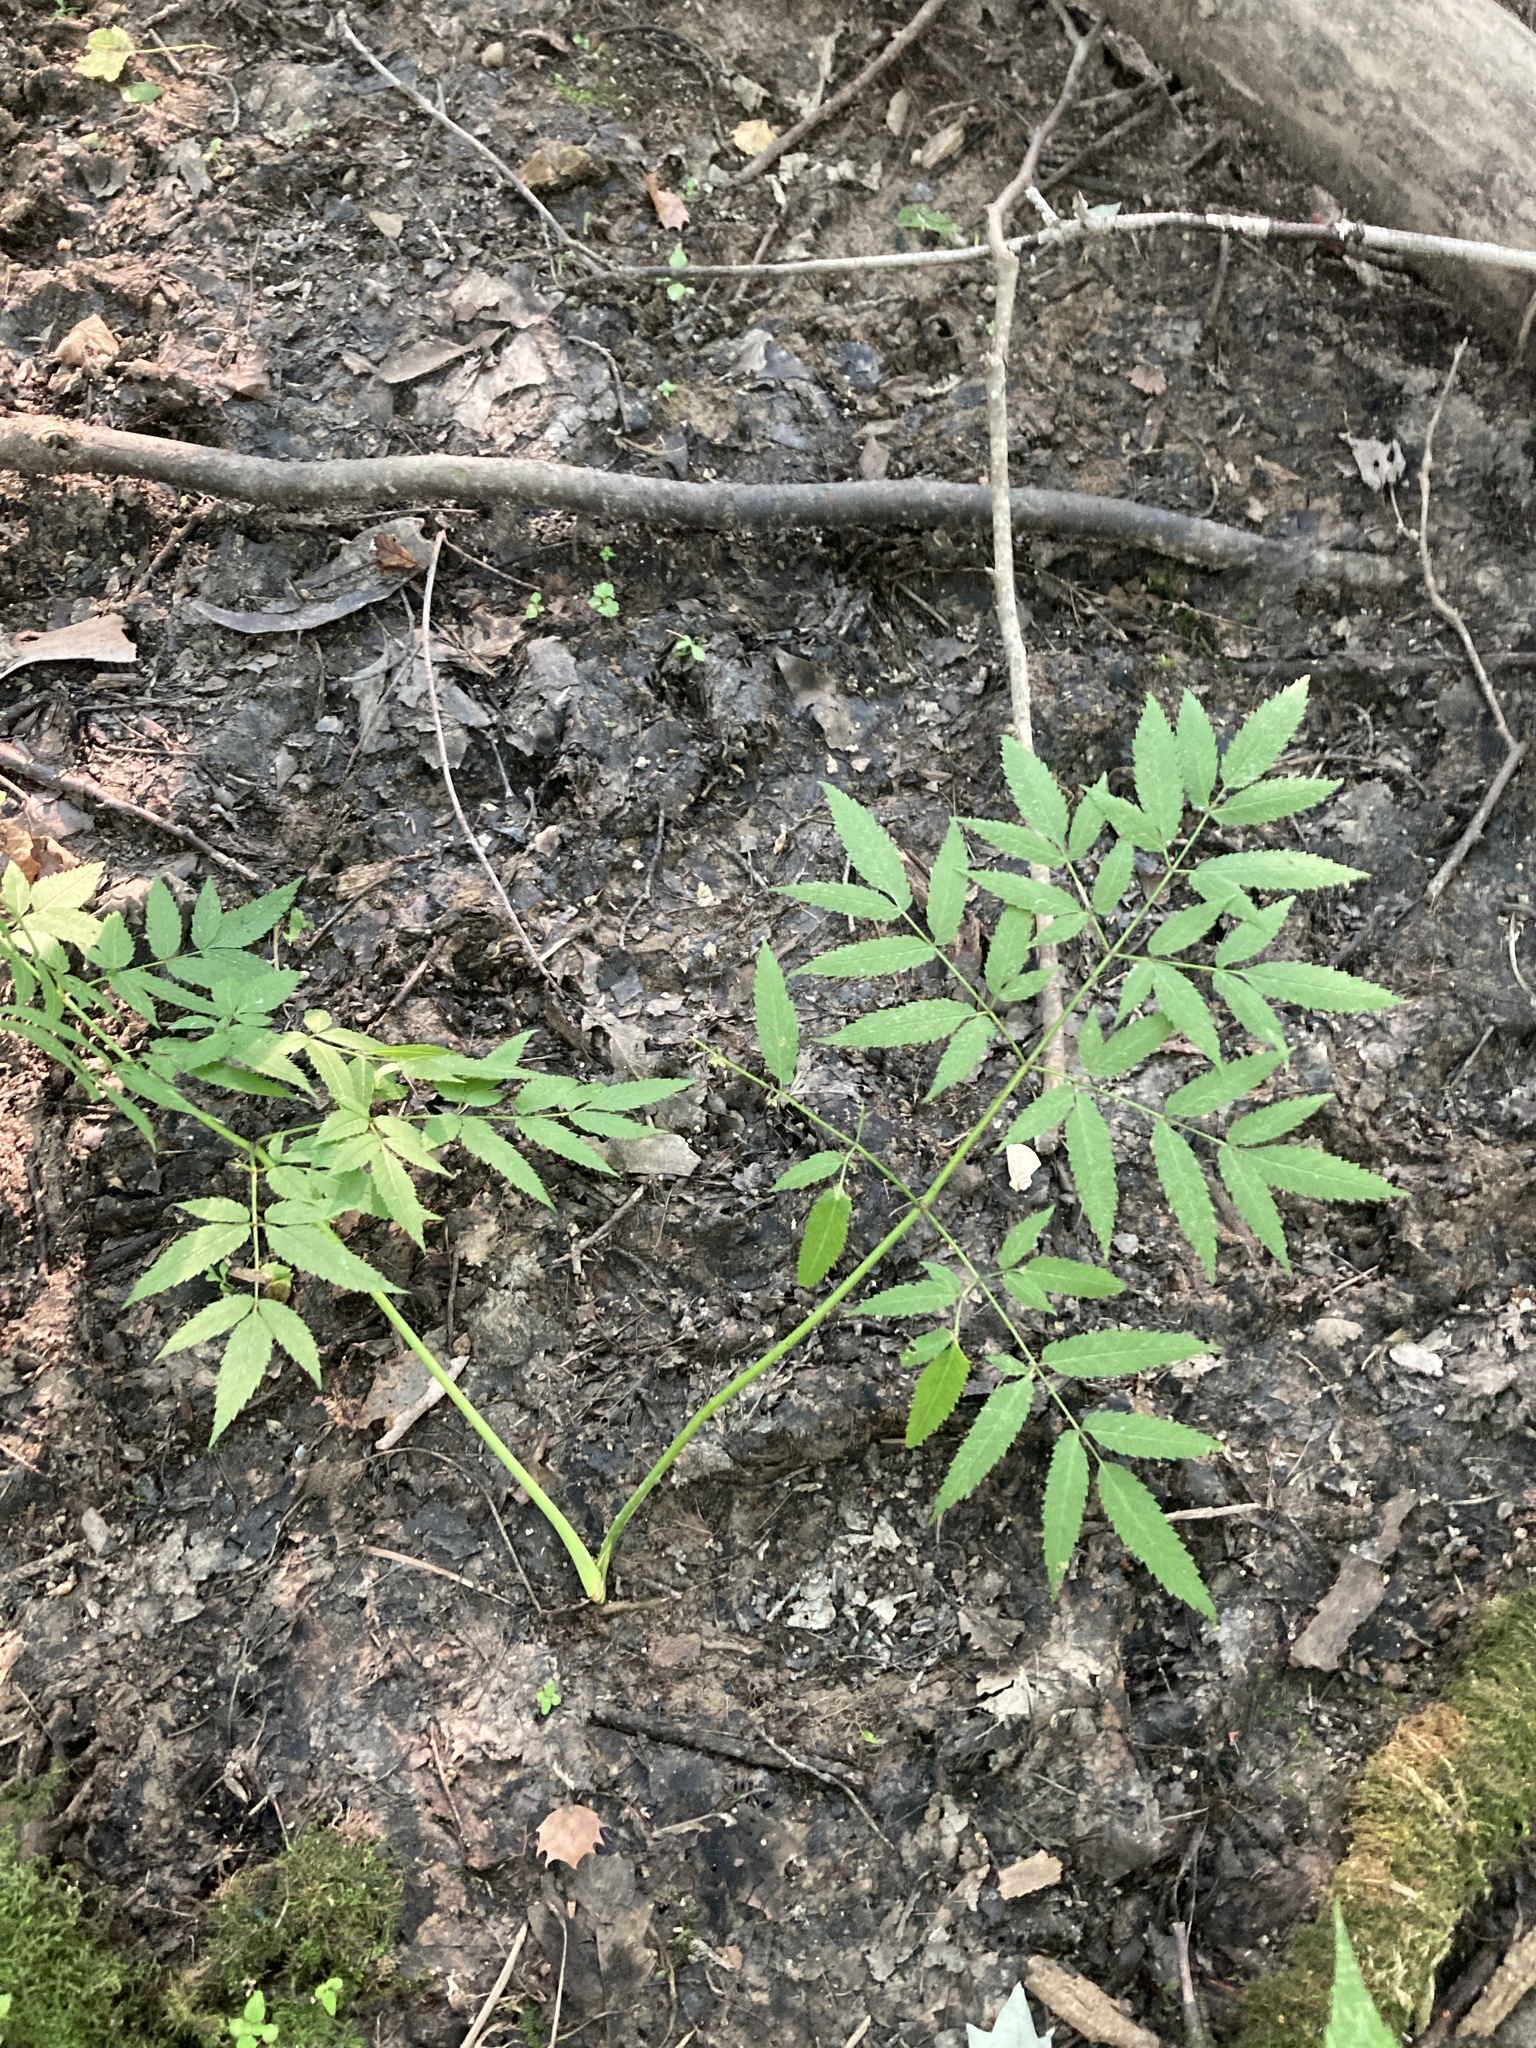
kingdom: Plantae
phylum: Tracheophyta
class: Magnoliopsida
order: Apiales
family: Apiaceae
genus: Cicuta
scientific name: Cicuta maculata
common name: Spotted cowbane
